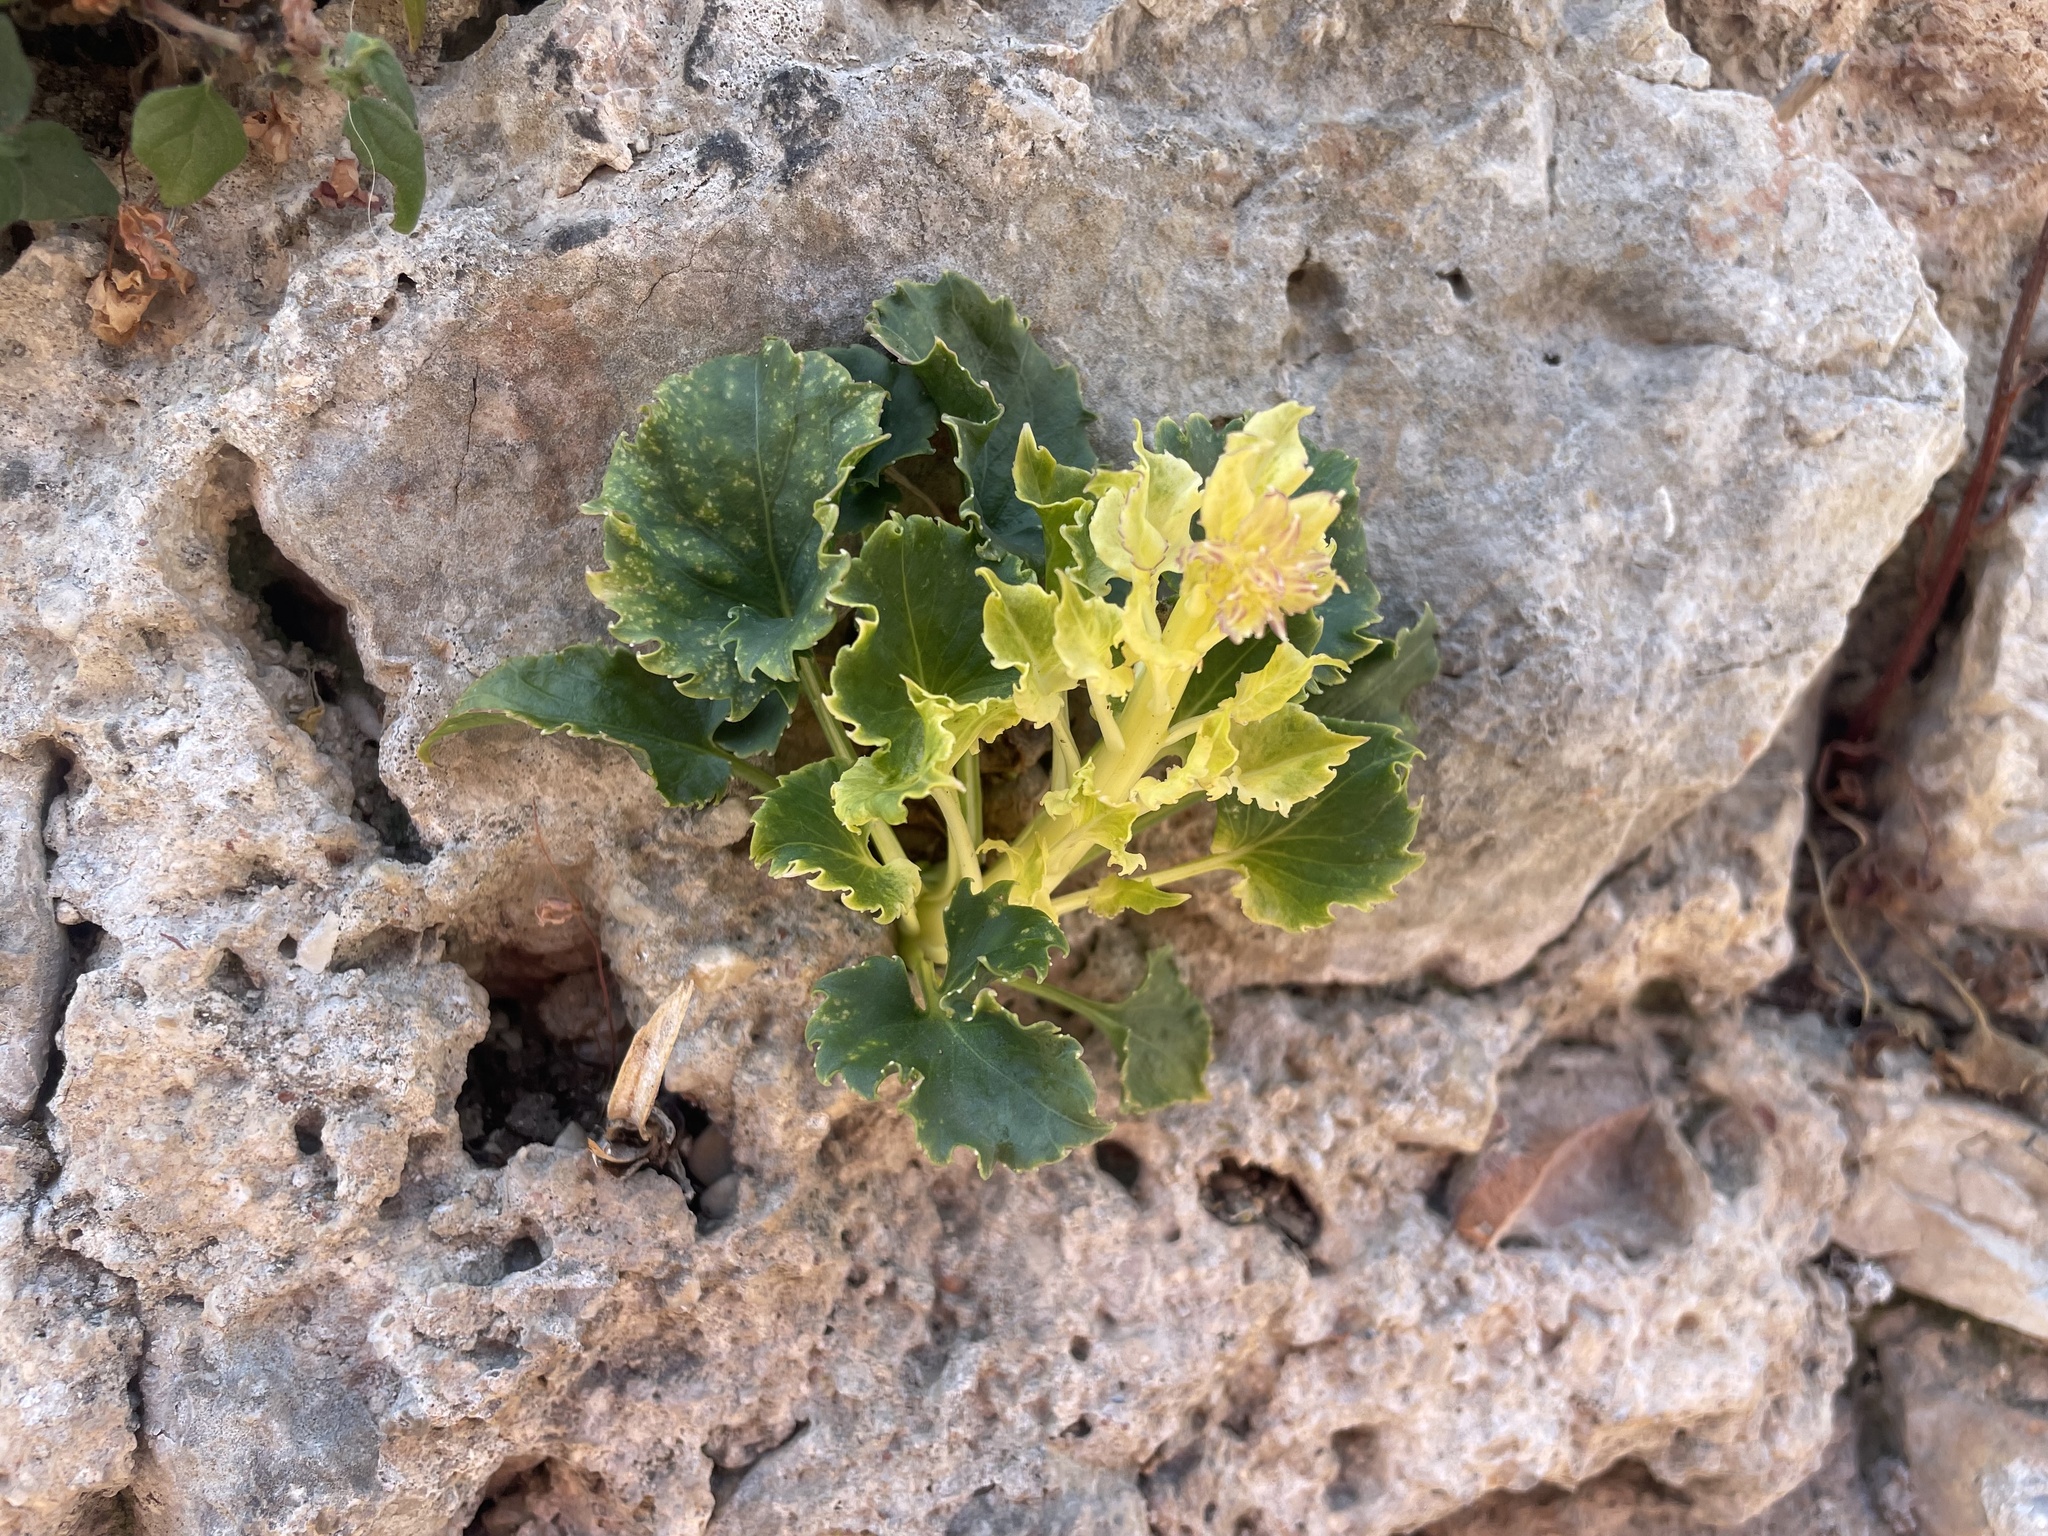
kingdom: Plantae
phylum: Tracheophyta
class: Magnoliopsida
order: Asterales
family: Campanulaceae
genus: Campanula
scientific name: Campanula pyramidalis
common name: Chimney bellflower
